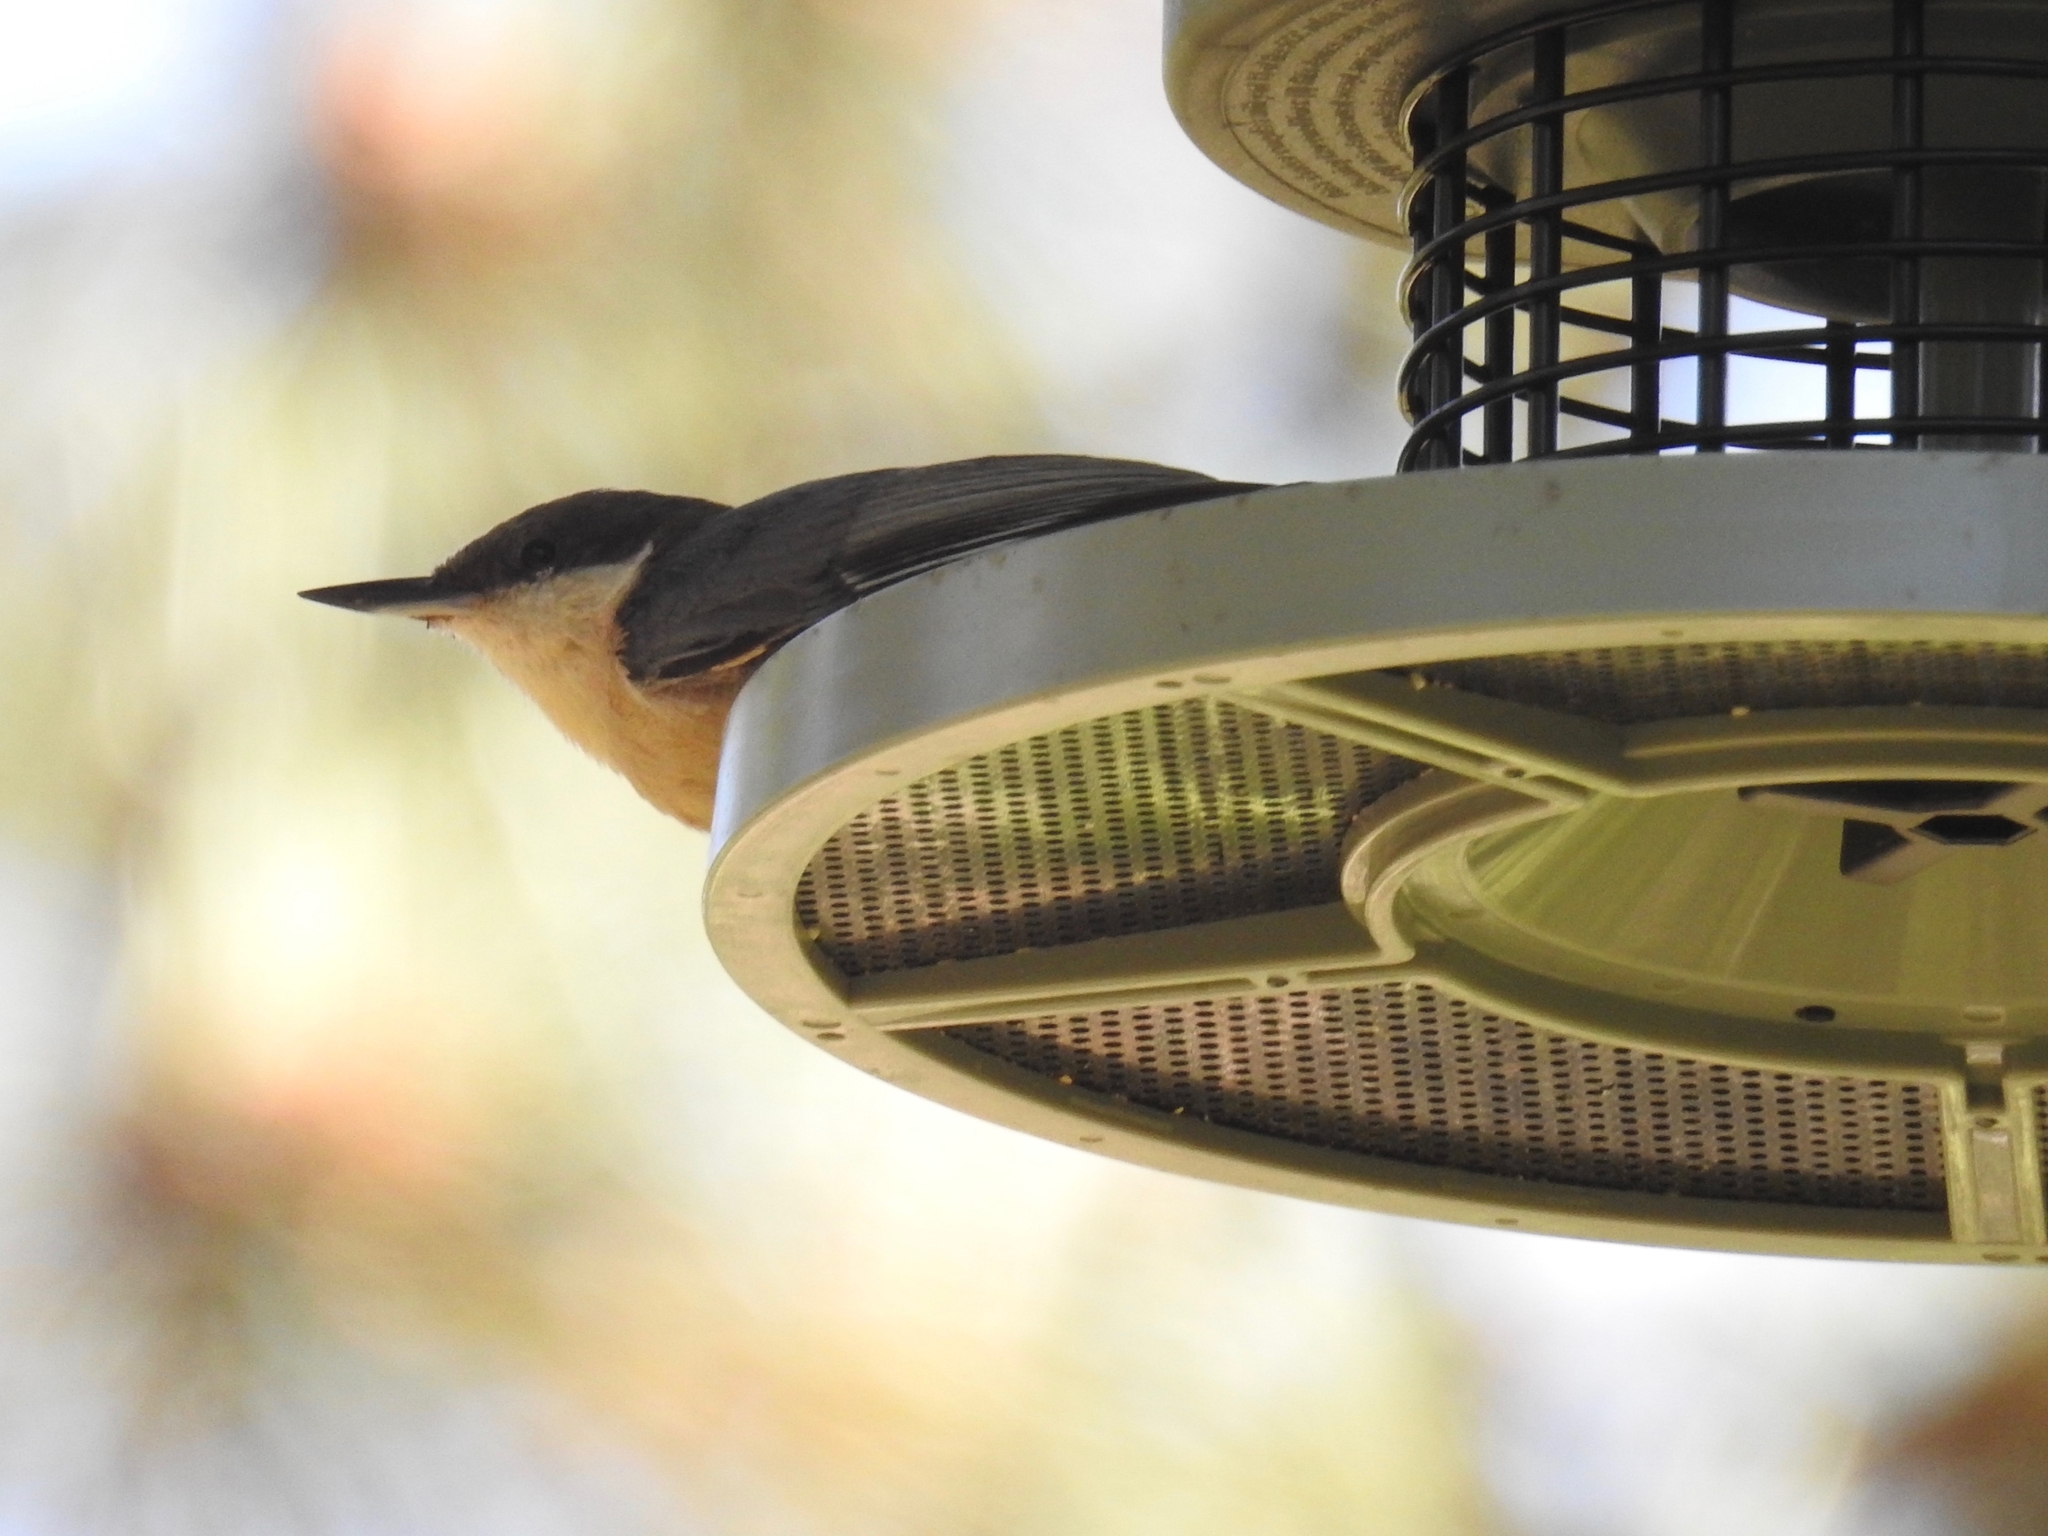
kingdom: Animalia
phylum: Chordata
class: Aves
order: Passeriformes
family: Sittidae
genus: Sitta
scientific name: Sitta pygmaea
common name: Pygmy nuthatch
